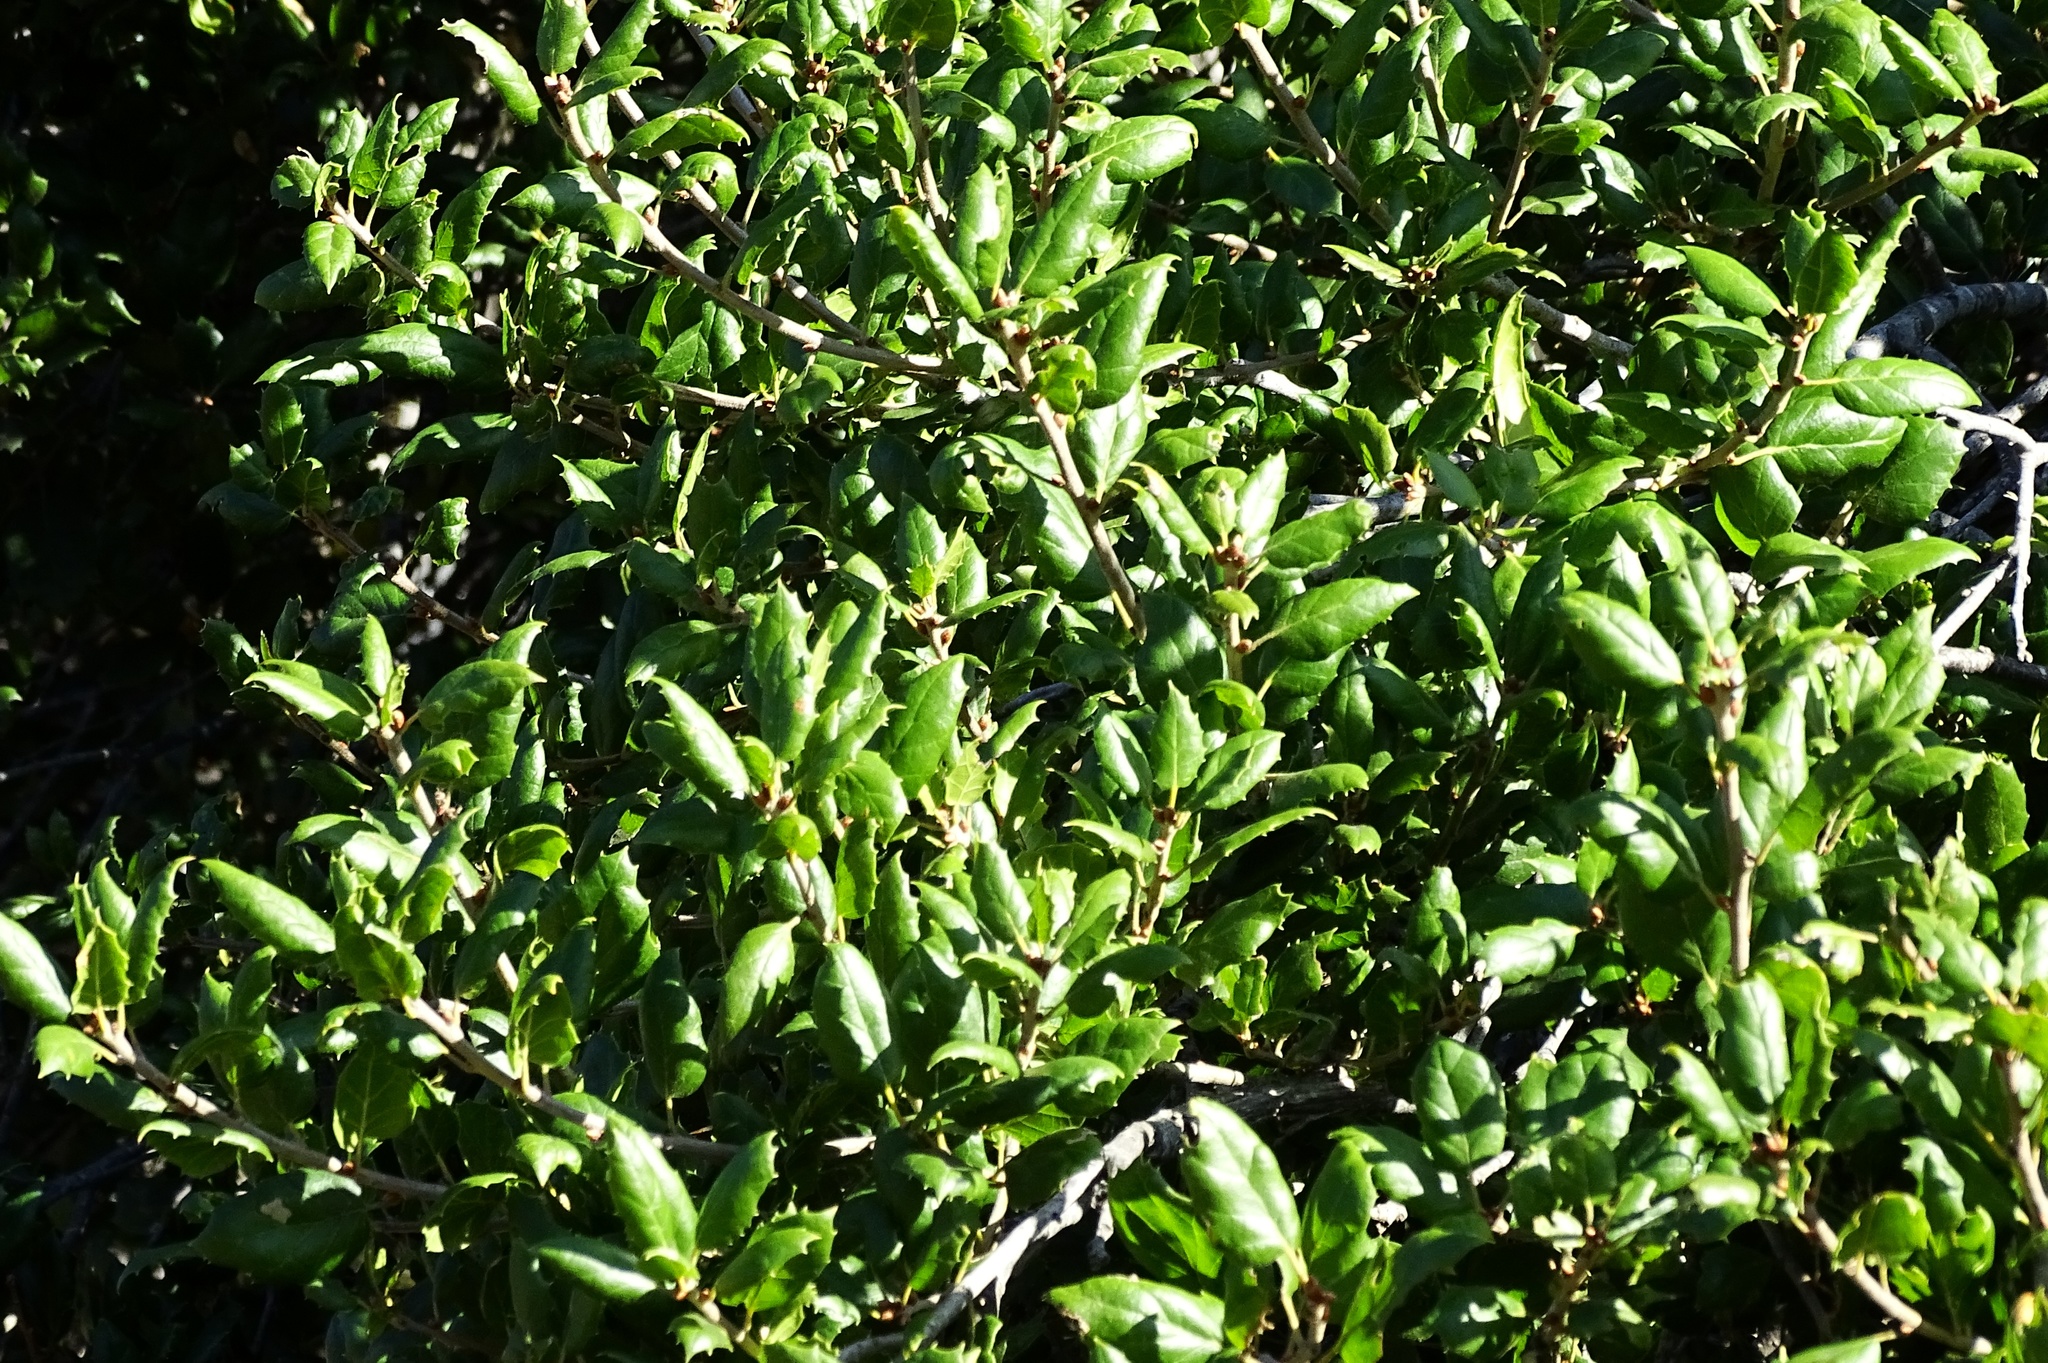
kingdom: Plantae
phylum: Tracheophyta
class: Magnoliopsida
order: Fagales
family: Fagaceae
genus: Quercus
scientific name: Quercus agrifolia
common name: California live oak
